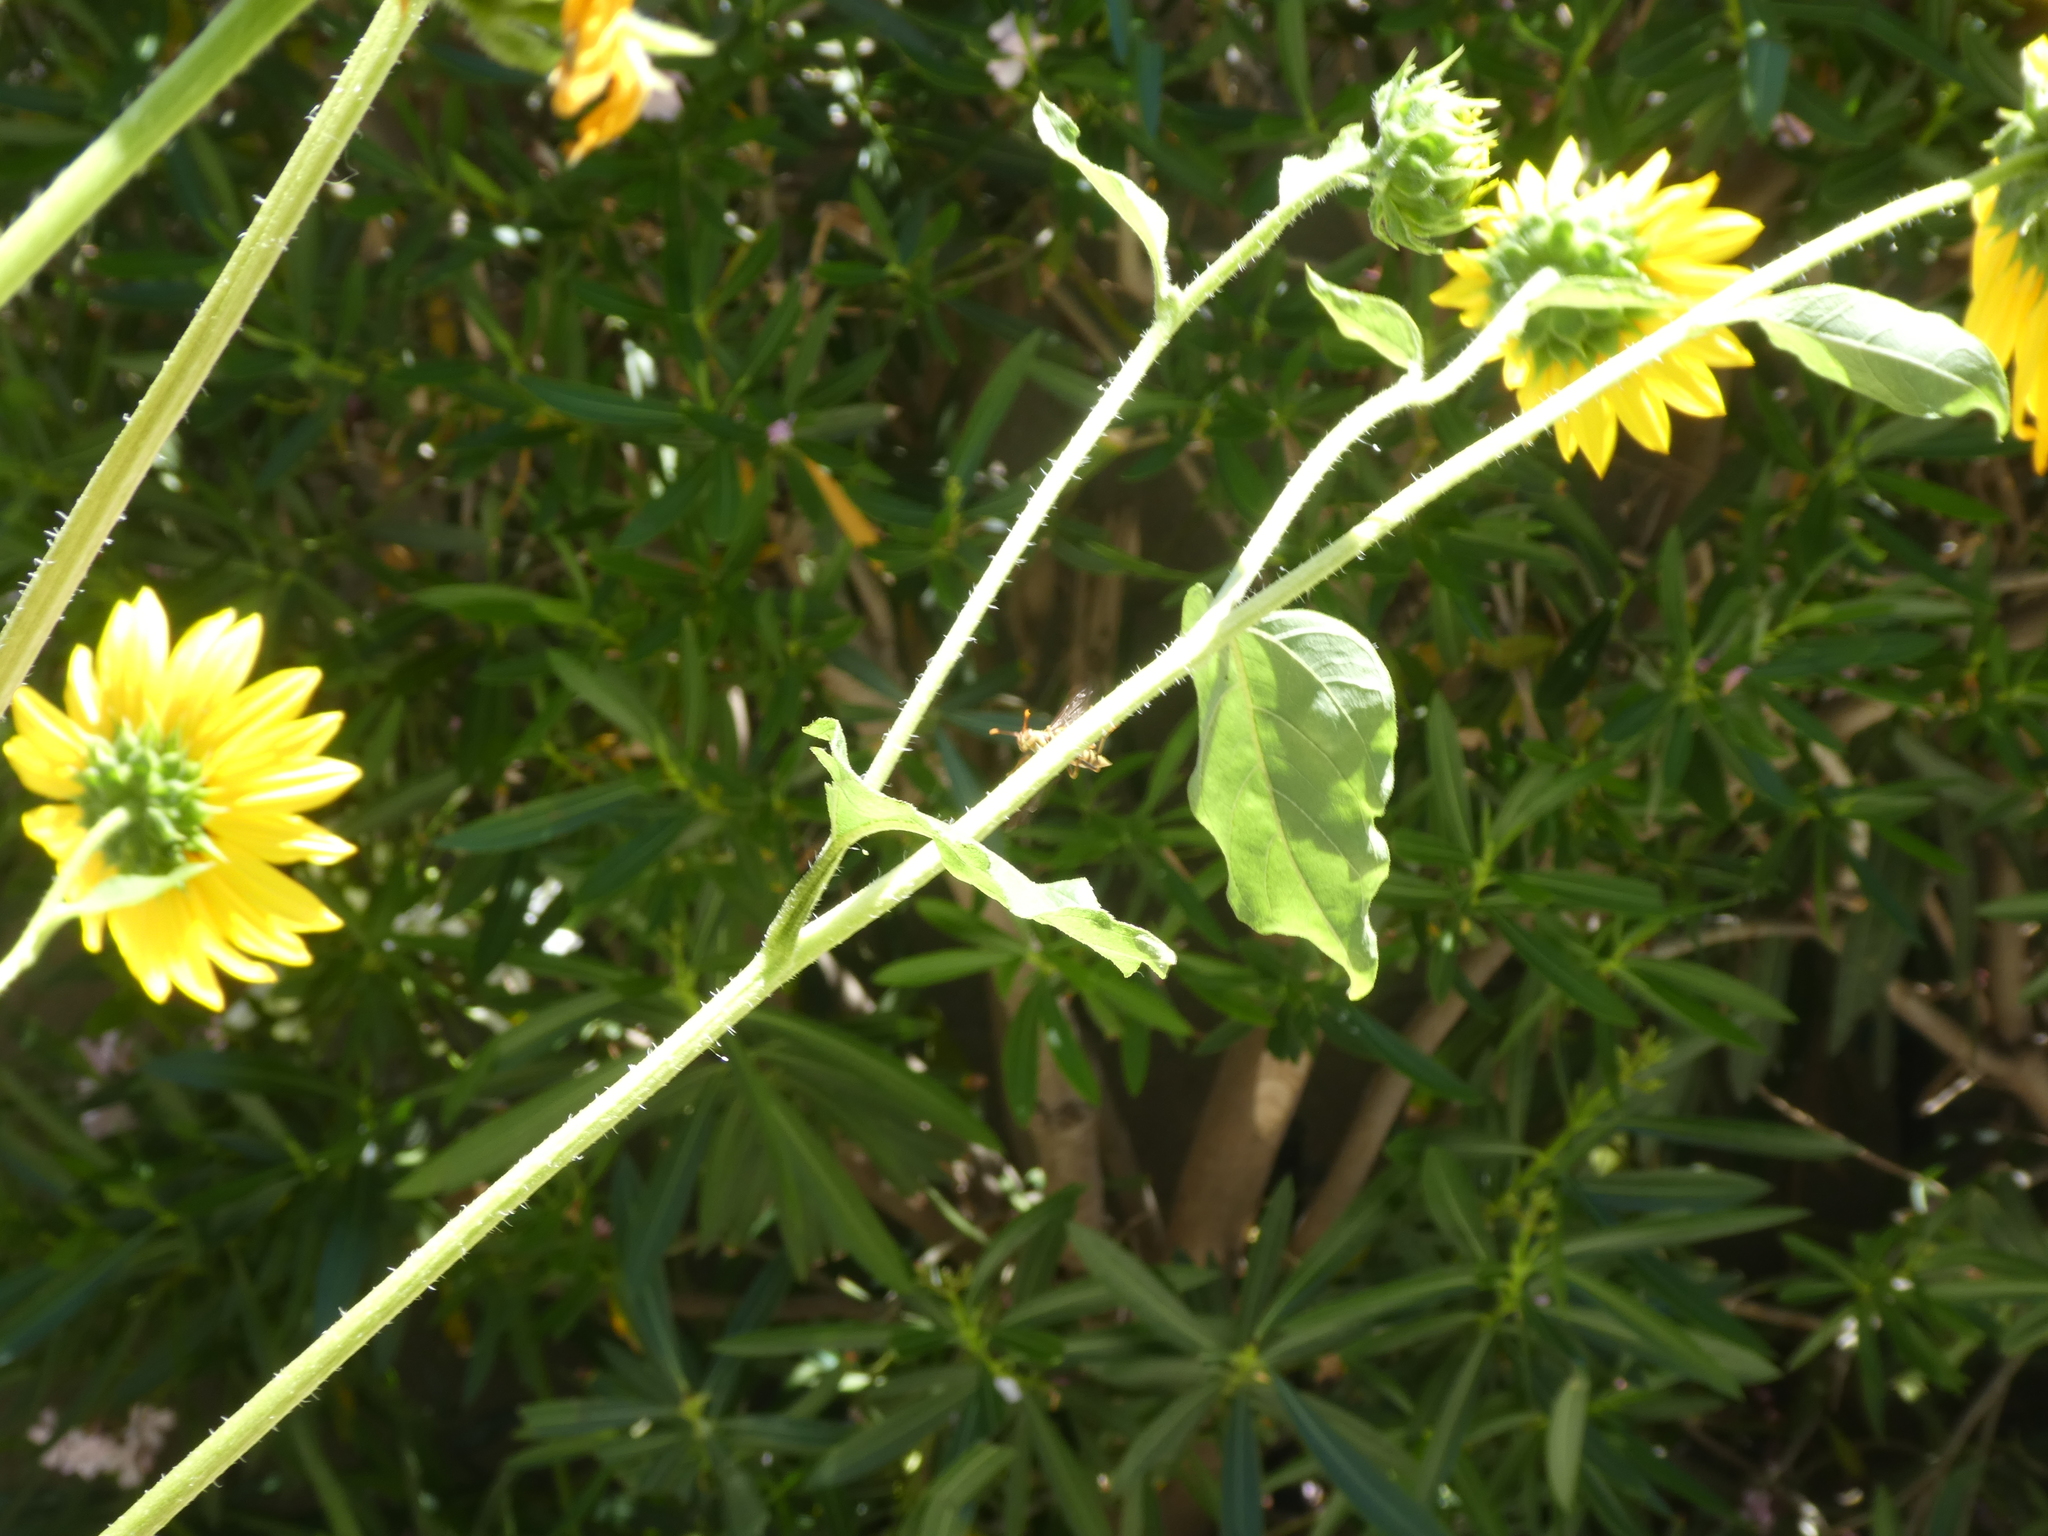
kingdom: Animalia
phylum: Arthropoda
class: Insecta
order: Hymenoptera
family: Eumenidae
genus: Polistes
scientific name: Polistes exclamans
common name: Paper wasp
